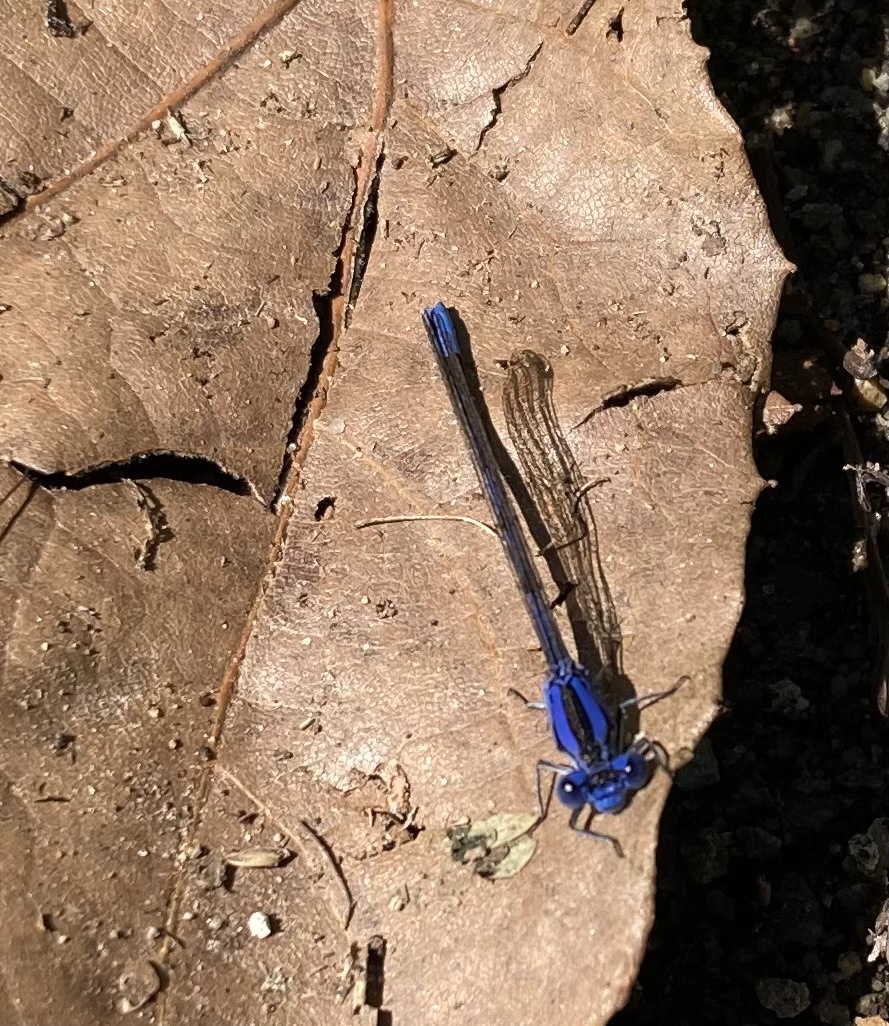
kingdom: Animalia
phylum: Arthropoda
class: Insecta
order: Odonata
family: Coenagrionidae
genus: Argia
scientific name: Argia vivida
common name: Vivid dancer
